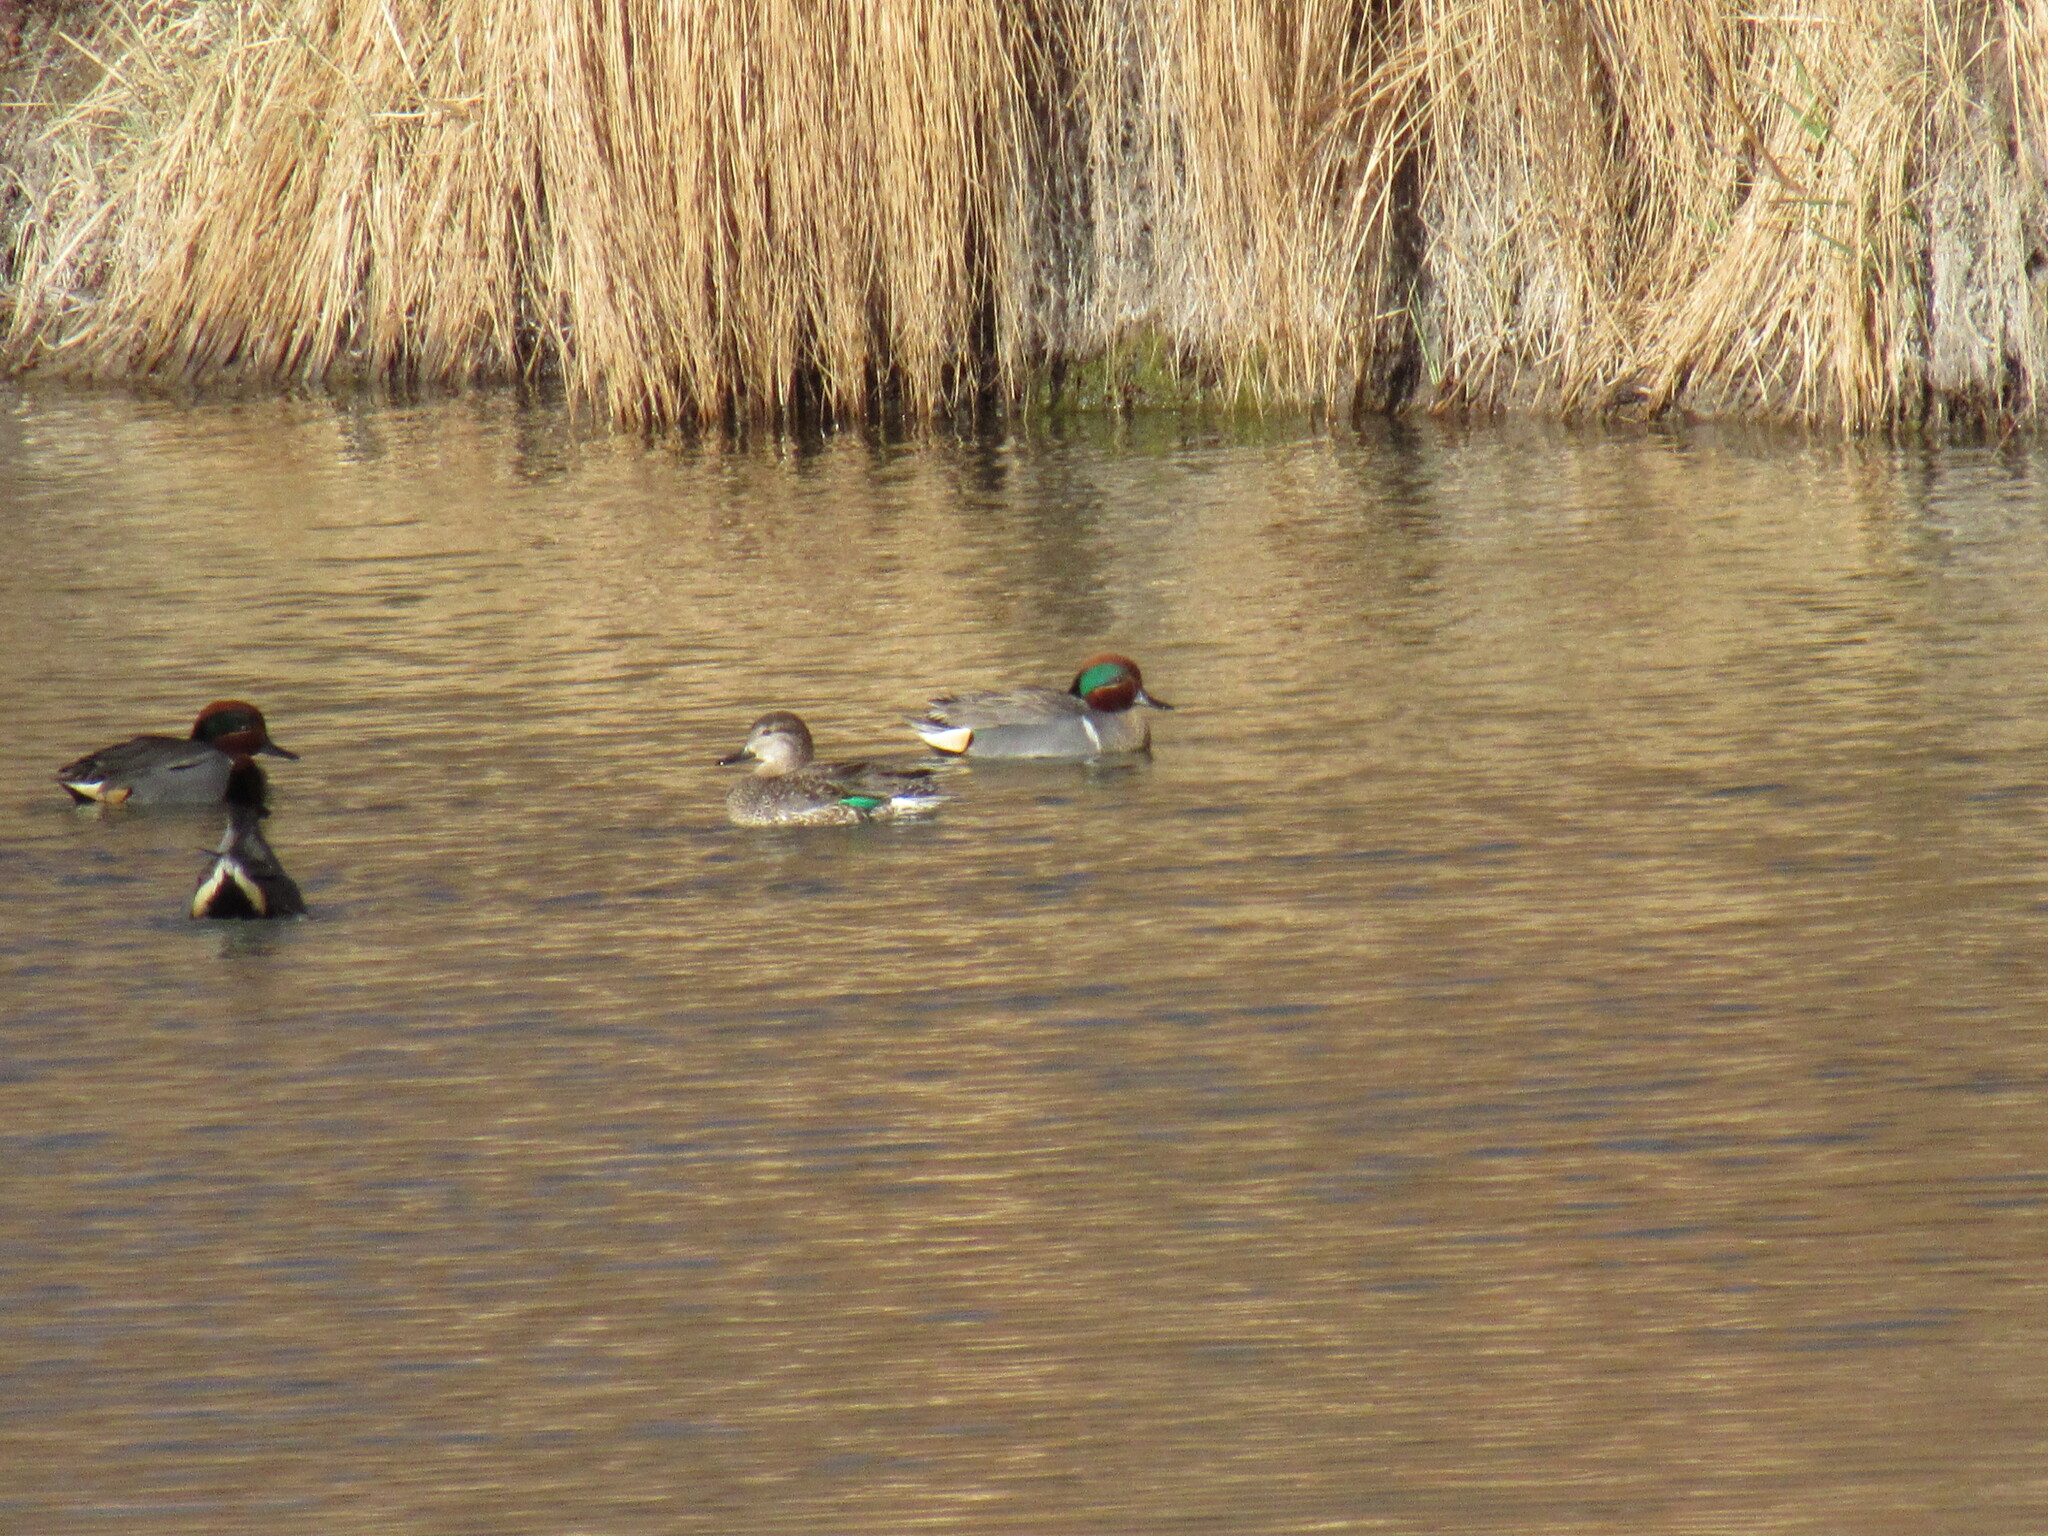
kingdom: Animalia
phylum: Chordata
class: Aves
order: Anseriformes
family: Anatidae
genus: Anas
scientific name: Anas crecca
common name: Eurasian teal
